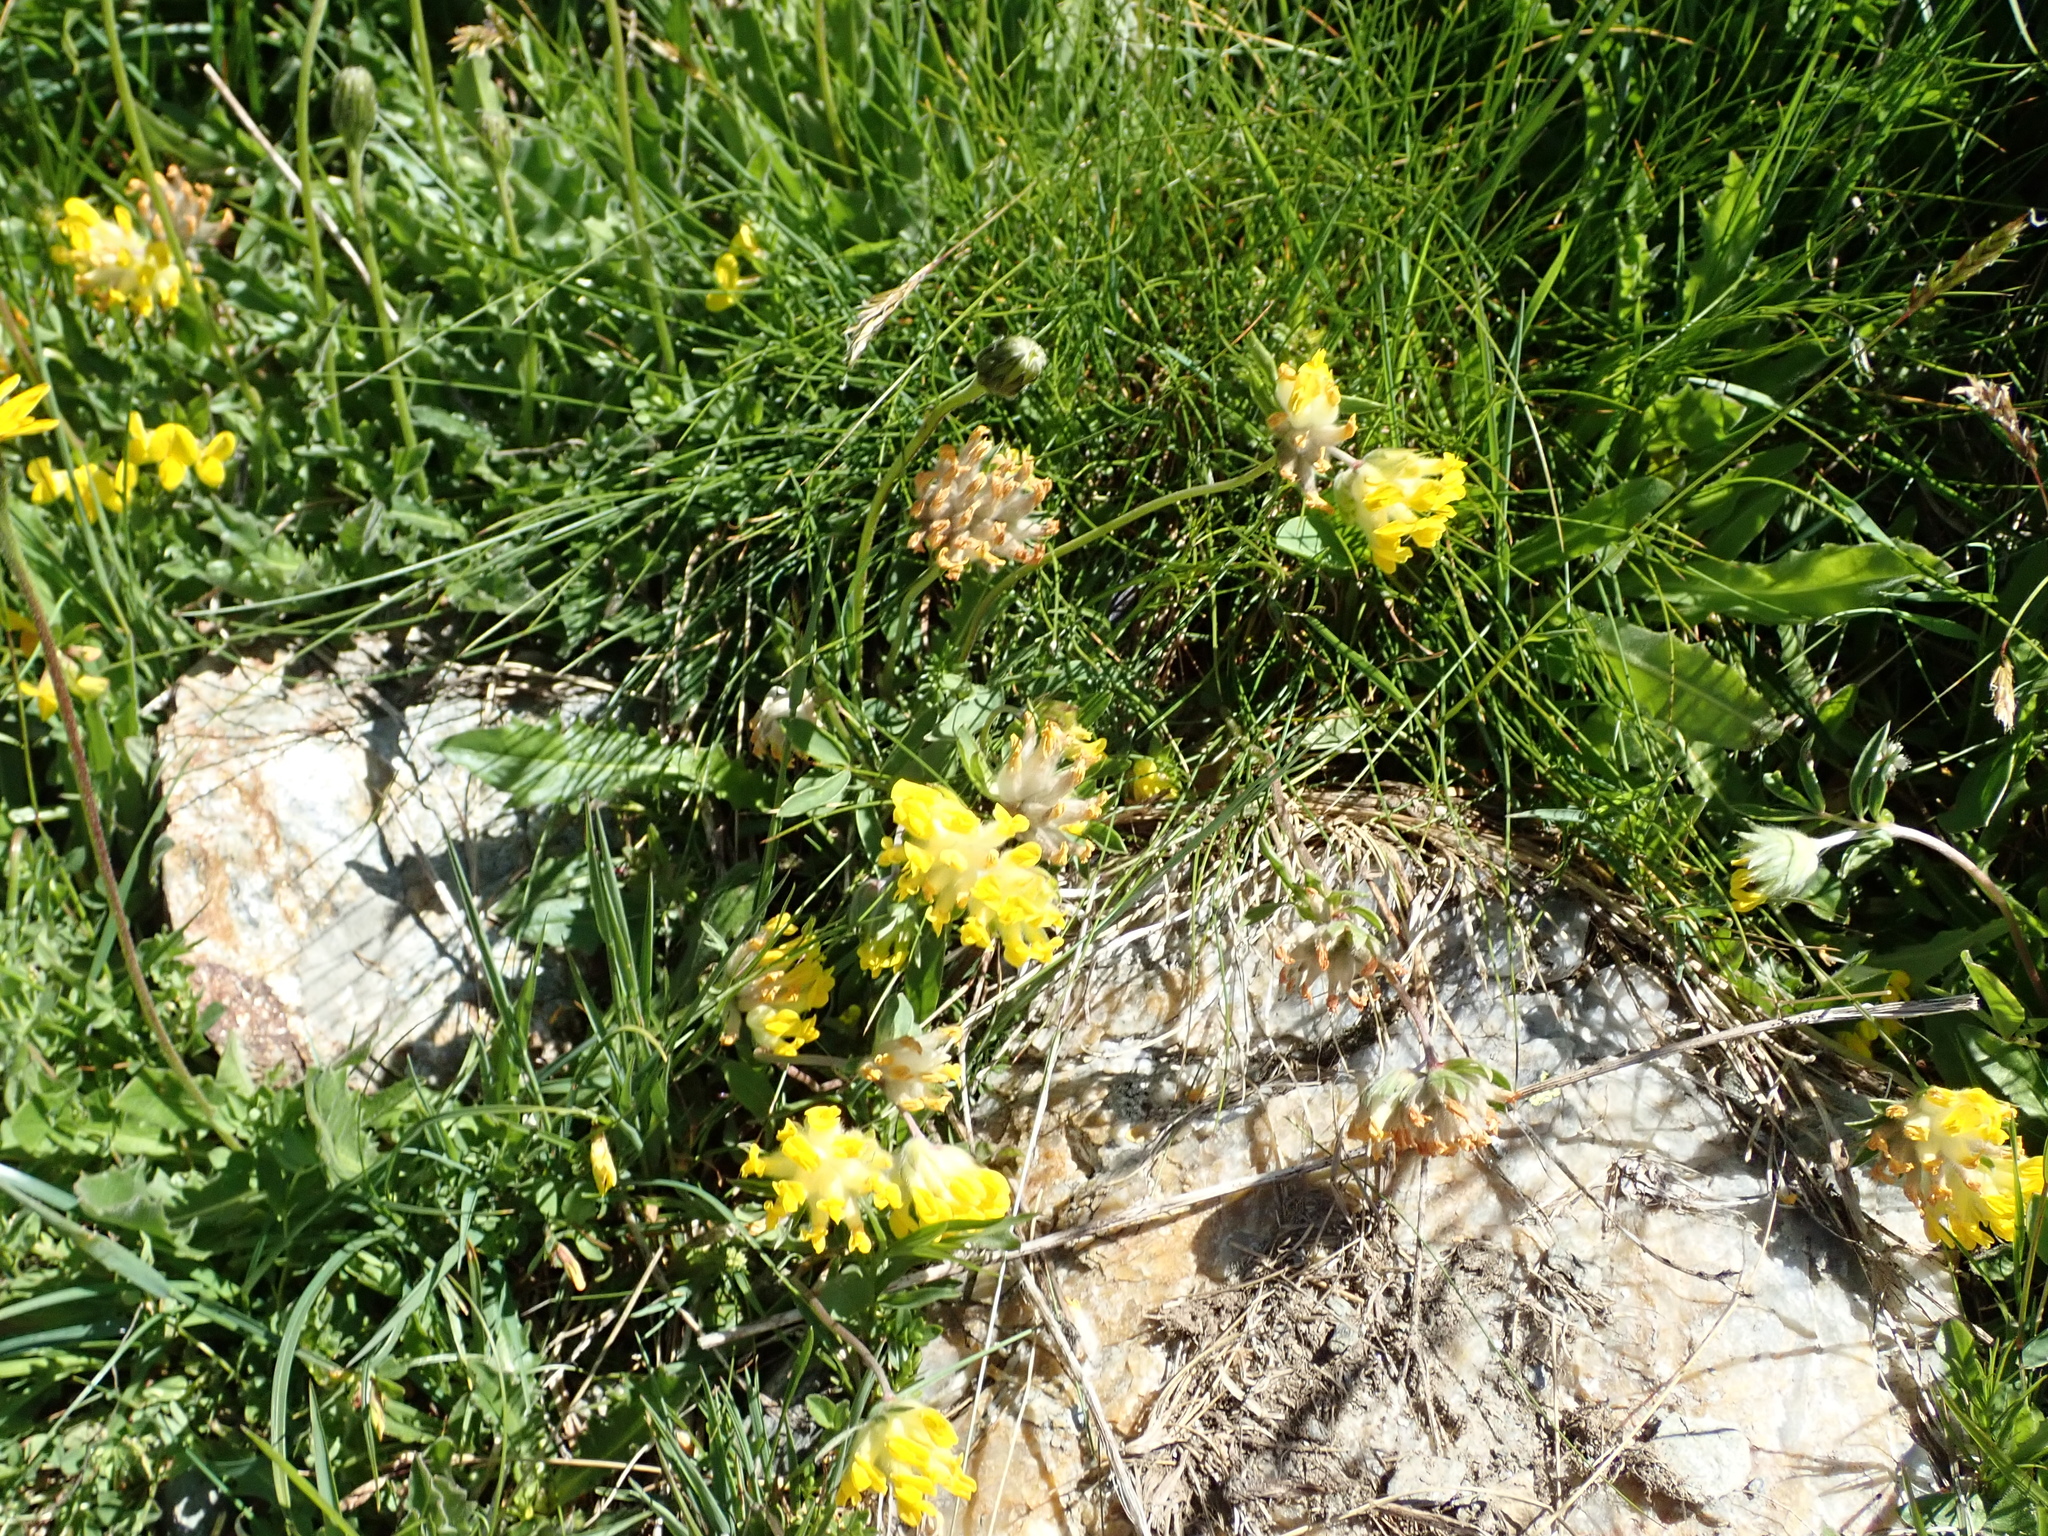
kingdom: Plantae
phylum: Tracheophyta
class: Magnoliopsida
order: Fabales
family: Fabaceae
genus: Anthyllis
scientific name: Anthyllis vulneraria
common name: Kidney vetch
